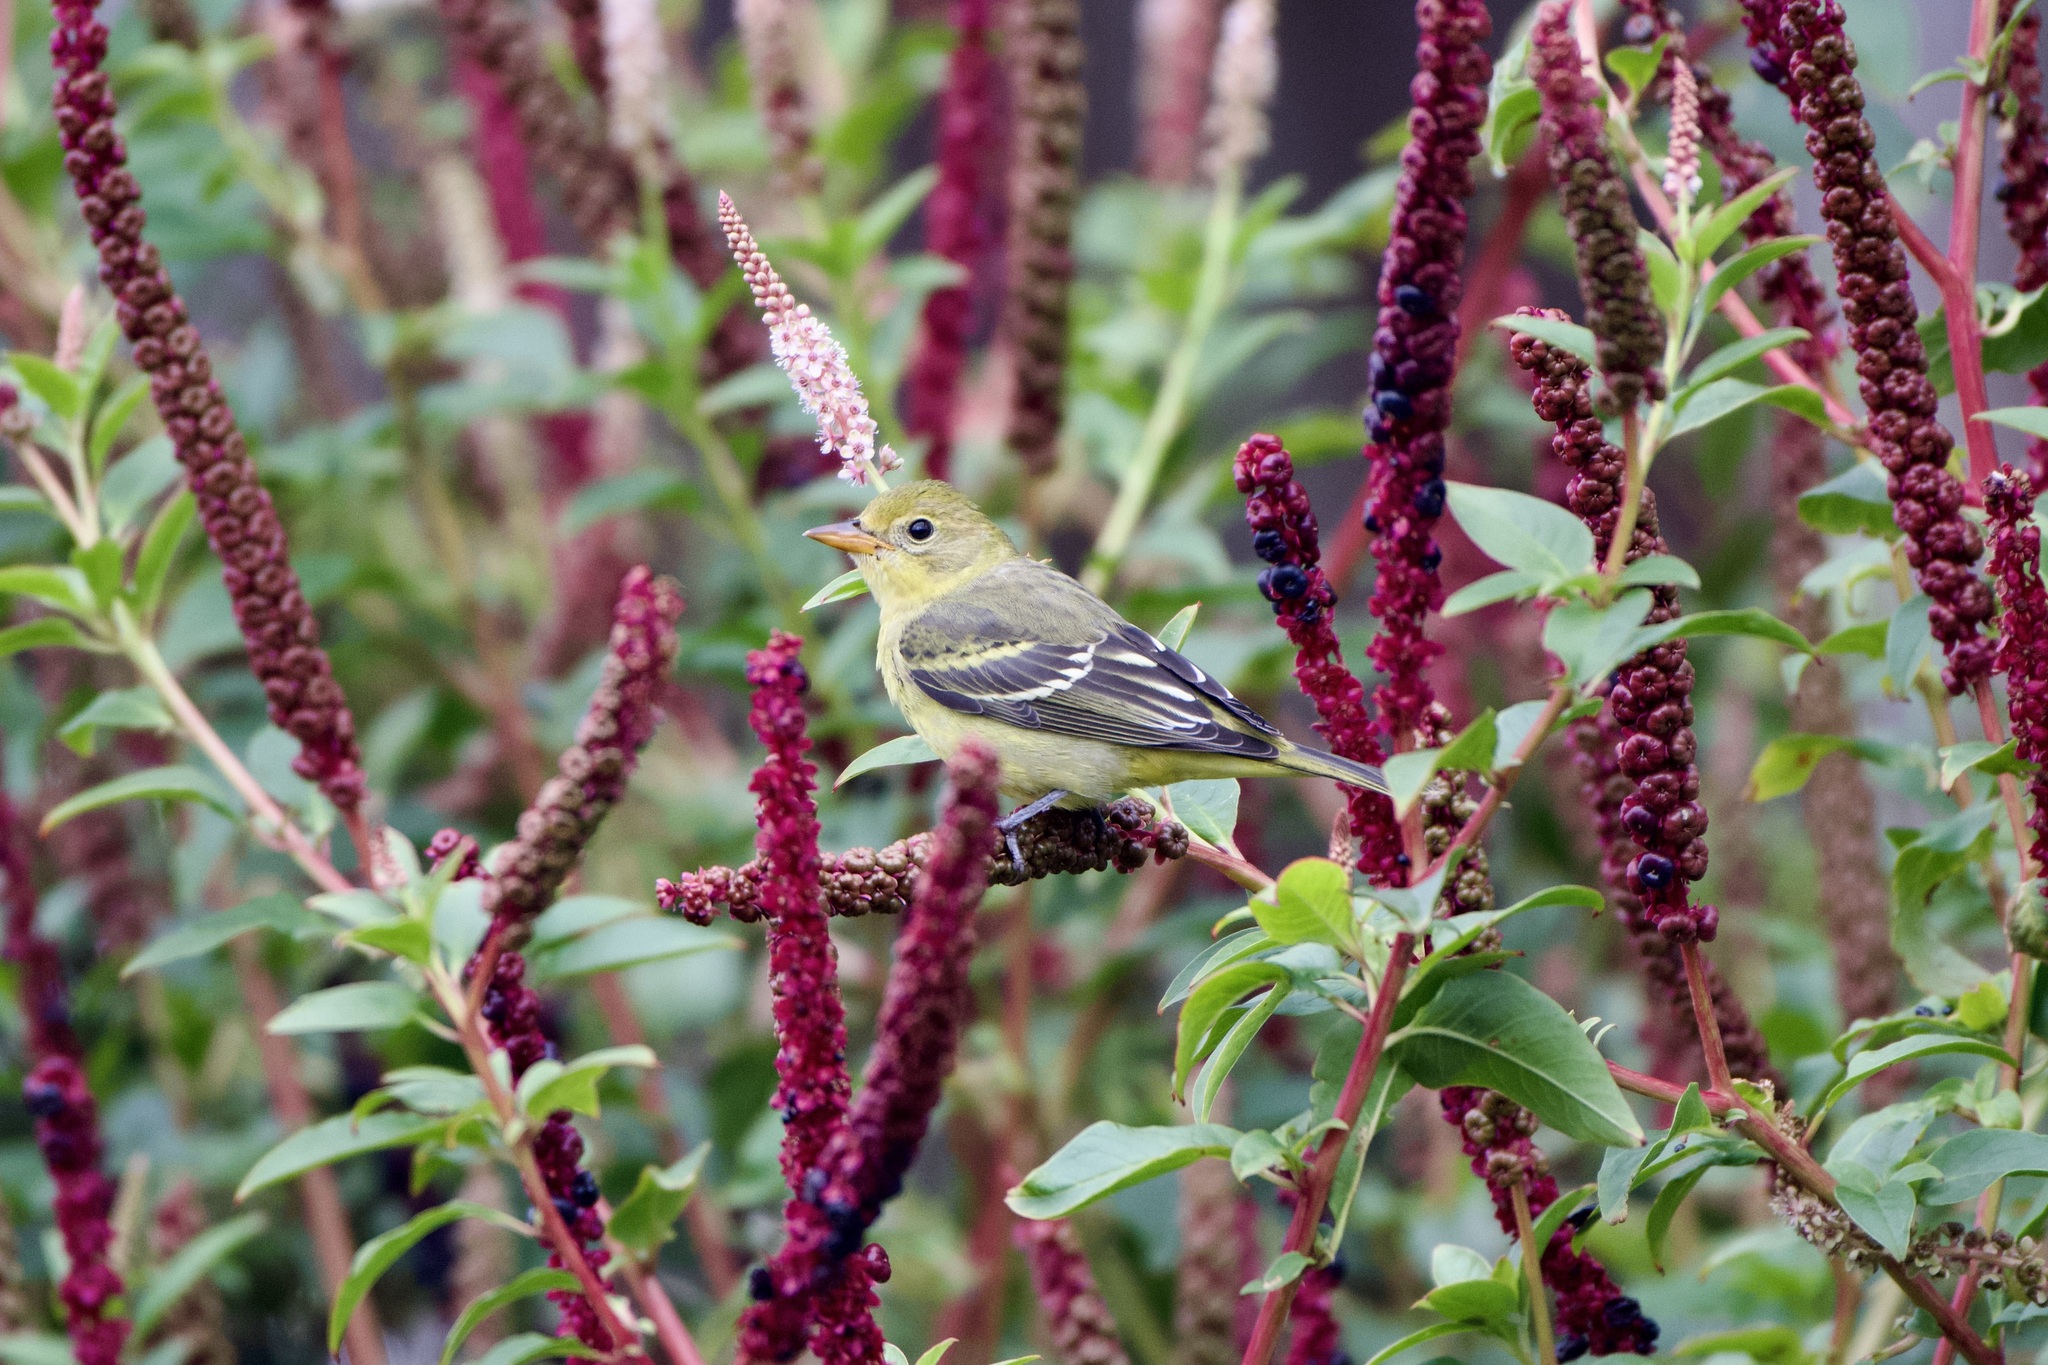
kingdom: Animalia
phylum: Chordata
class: Aves
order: Passeriformes
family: Cardinalidae
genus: Piranga
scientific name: Piranga ludoviciana
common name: Western tanager
